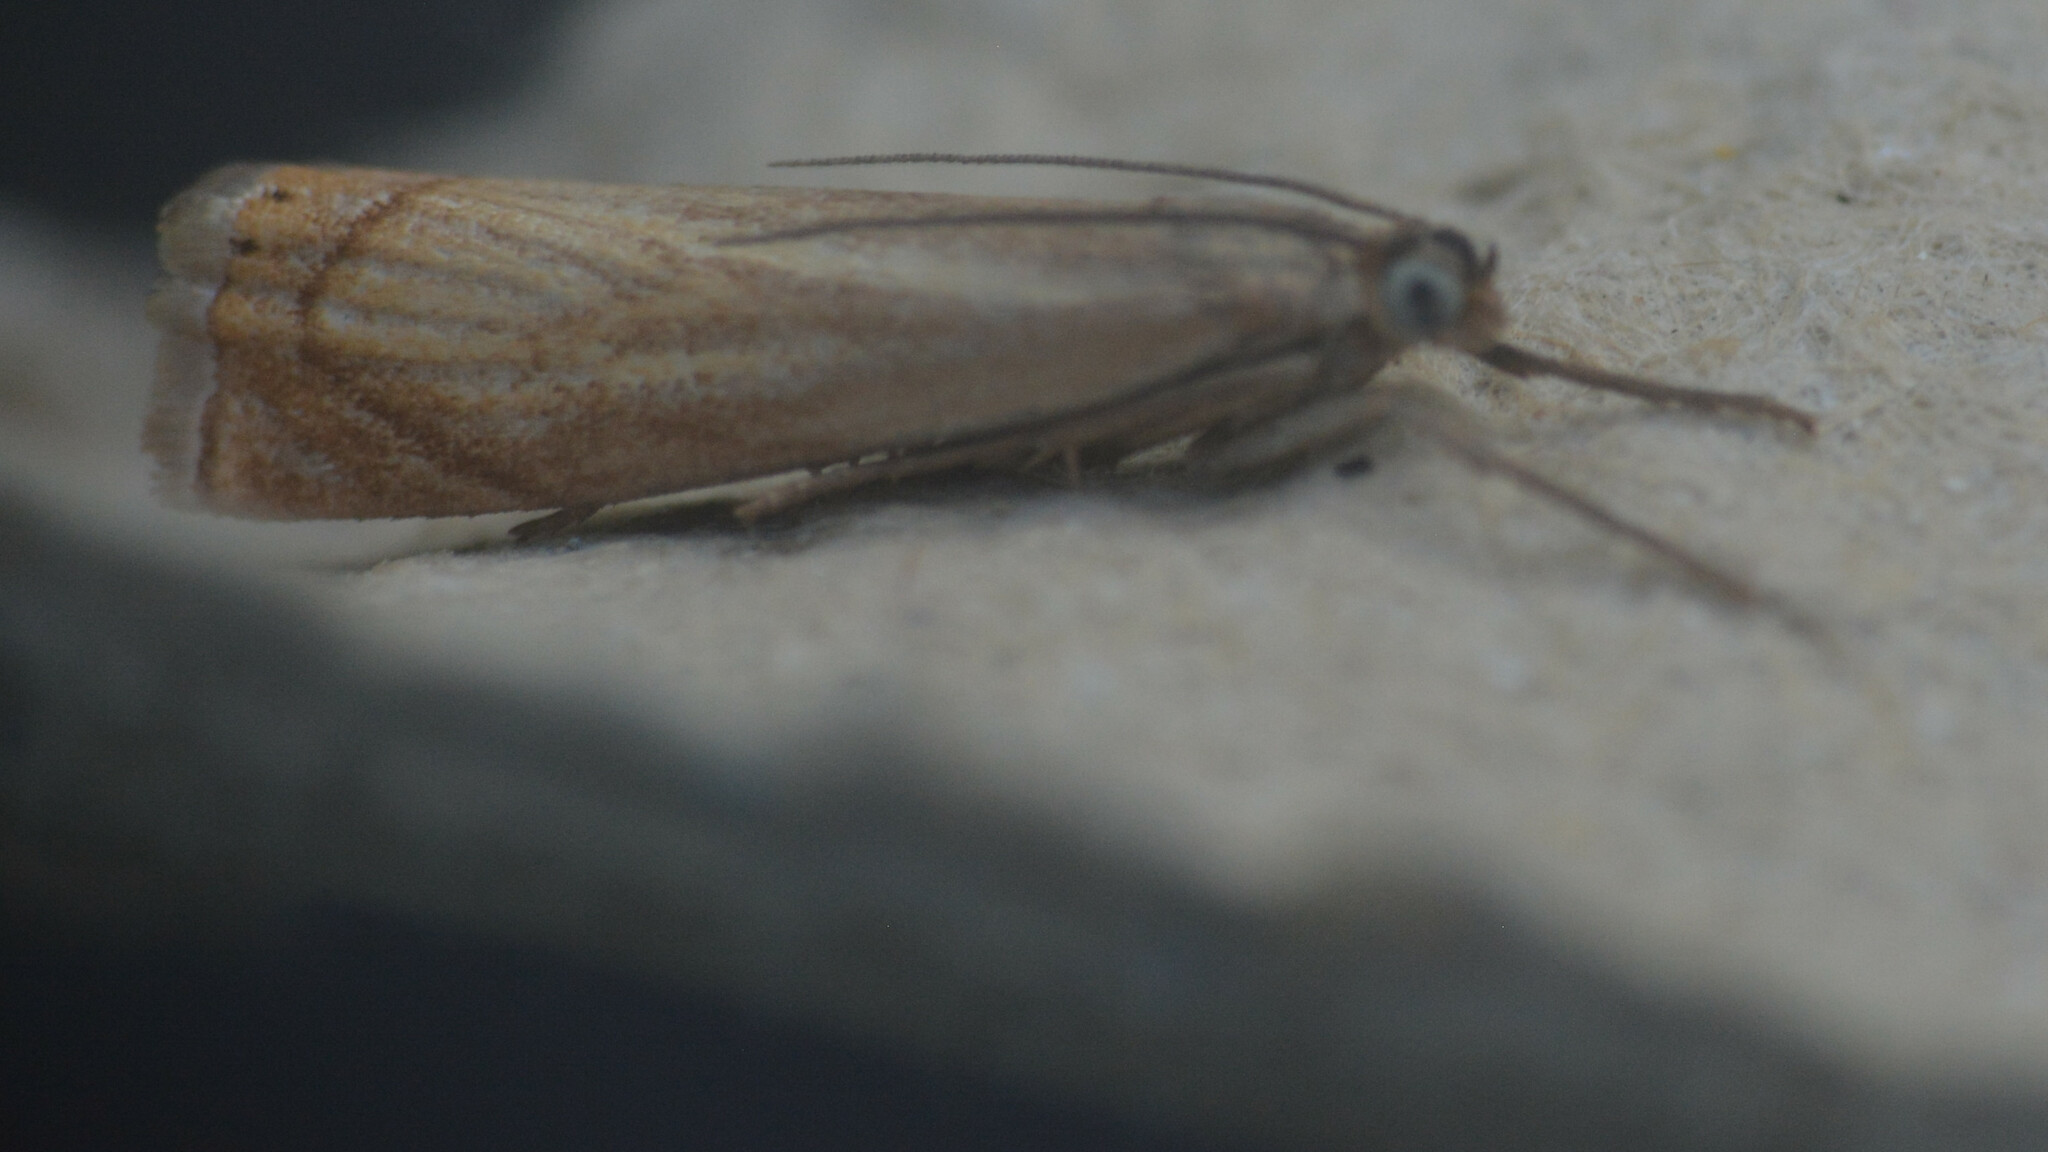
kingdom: Animalia
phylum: Arthropoda
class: Insecta
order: Lepidoptera
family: Crambidae
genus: Chrysoteuchia
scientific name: Chrysoteuchia culmella
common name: Garden grass-veneer
